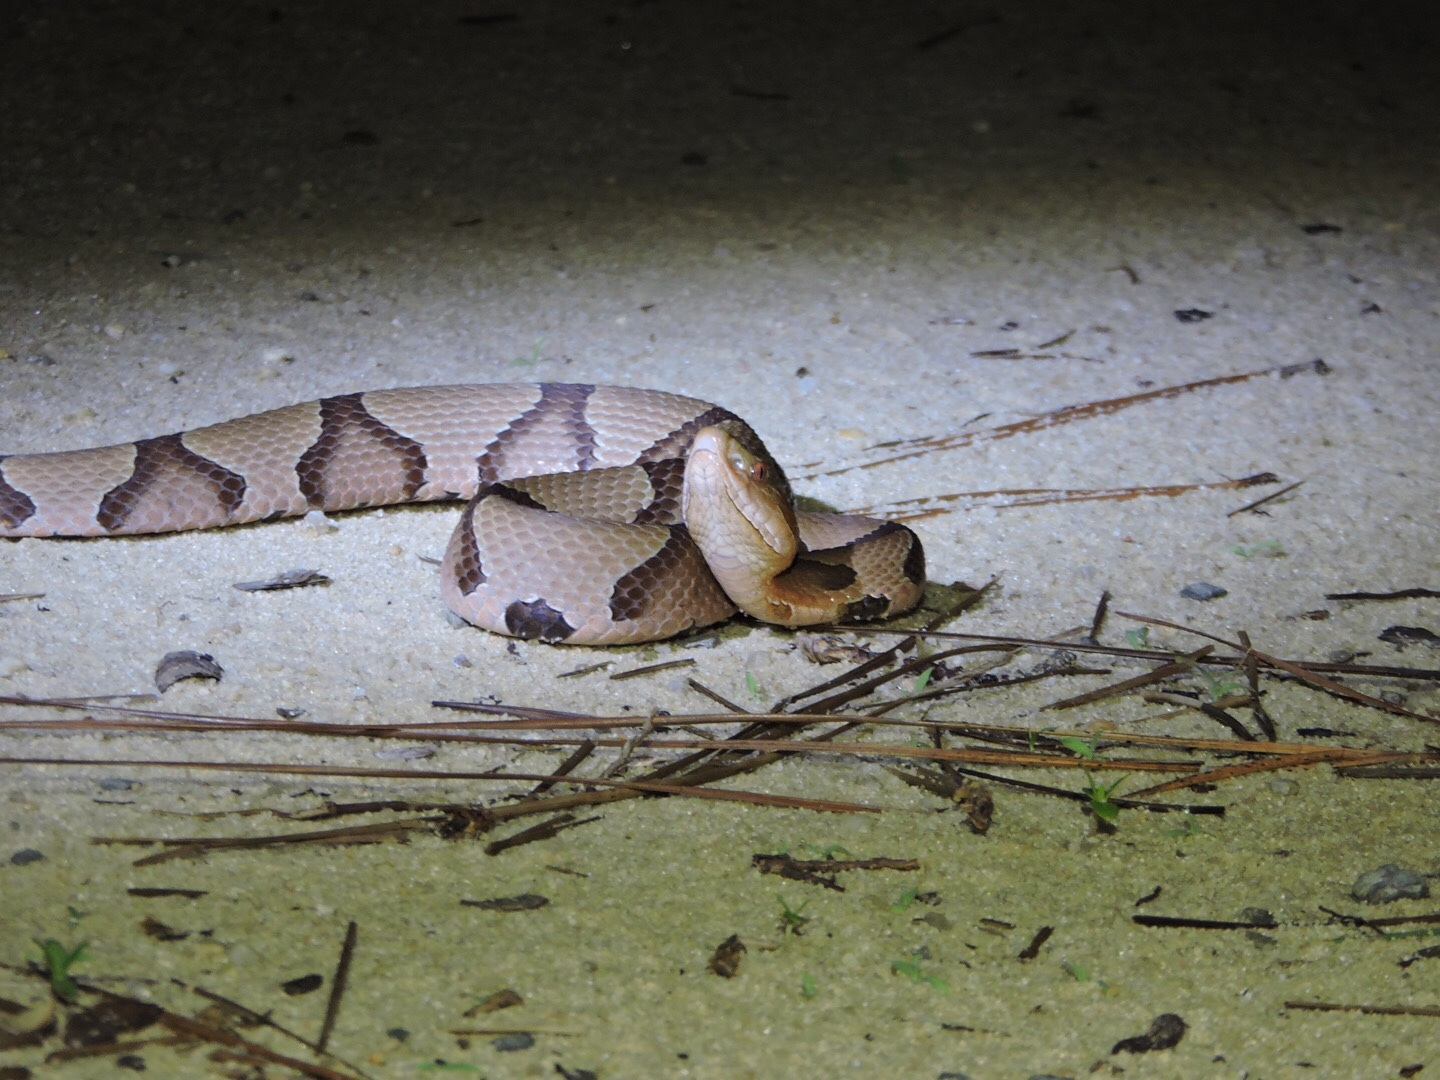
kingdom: Animalia
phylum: Chordata
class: Squamata
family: Viperidae
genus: Agkistrodon
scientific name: Agkistrodon contortrix
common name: Northern copperhead
